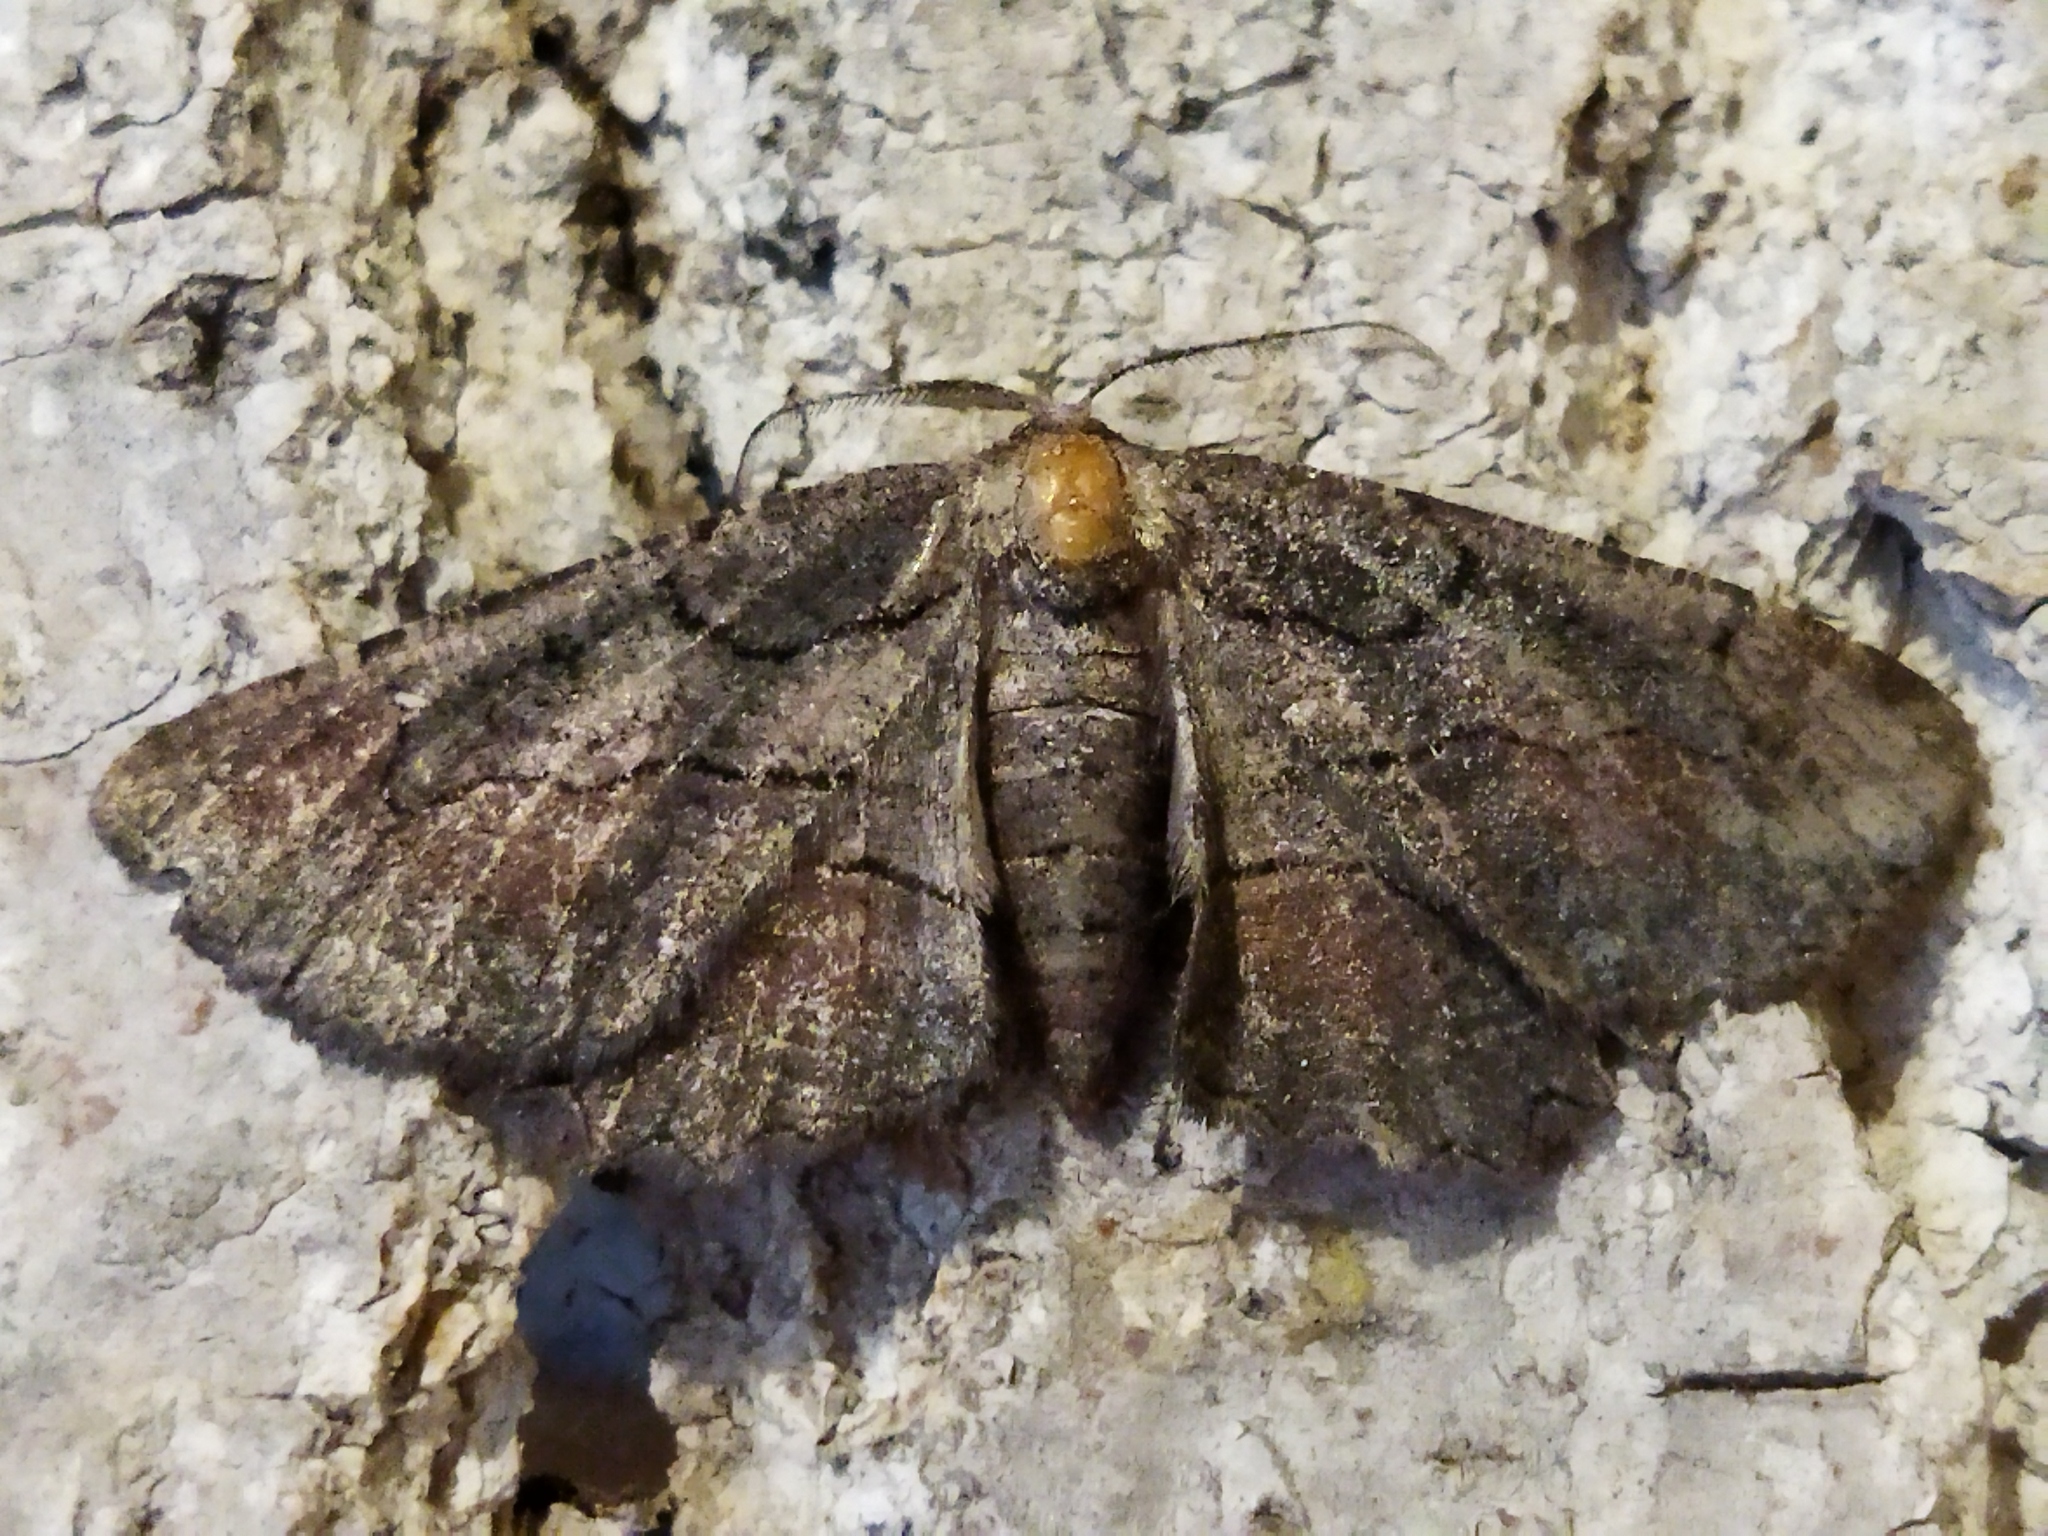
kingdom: Animalia
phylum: Arthropoda
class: Insecta
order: Lepidoptera
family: Geometridae
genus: Nychiodes
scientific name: Nychiodes waltheri
